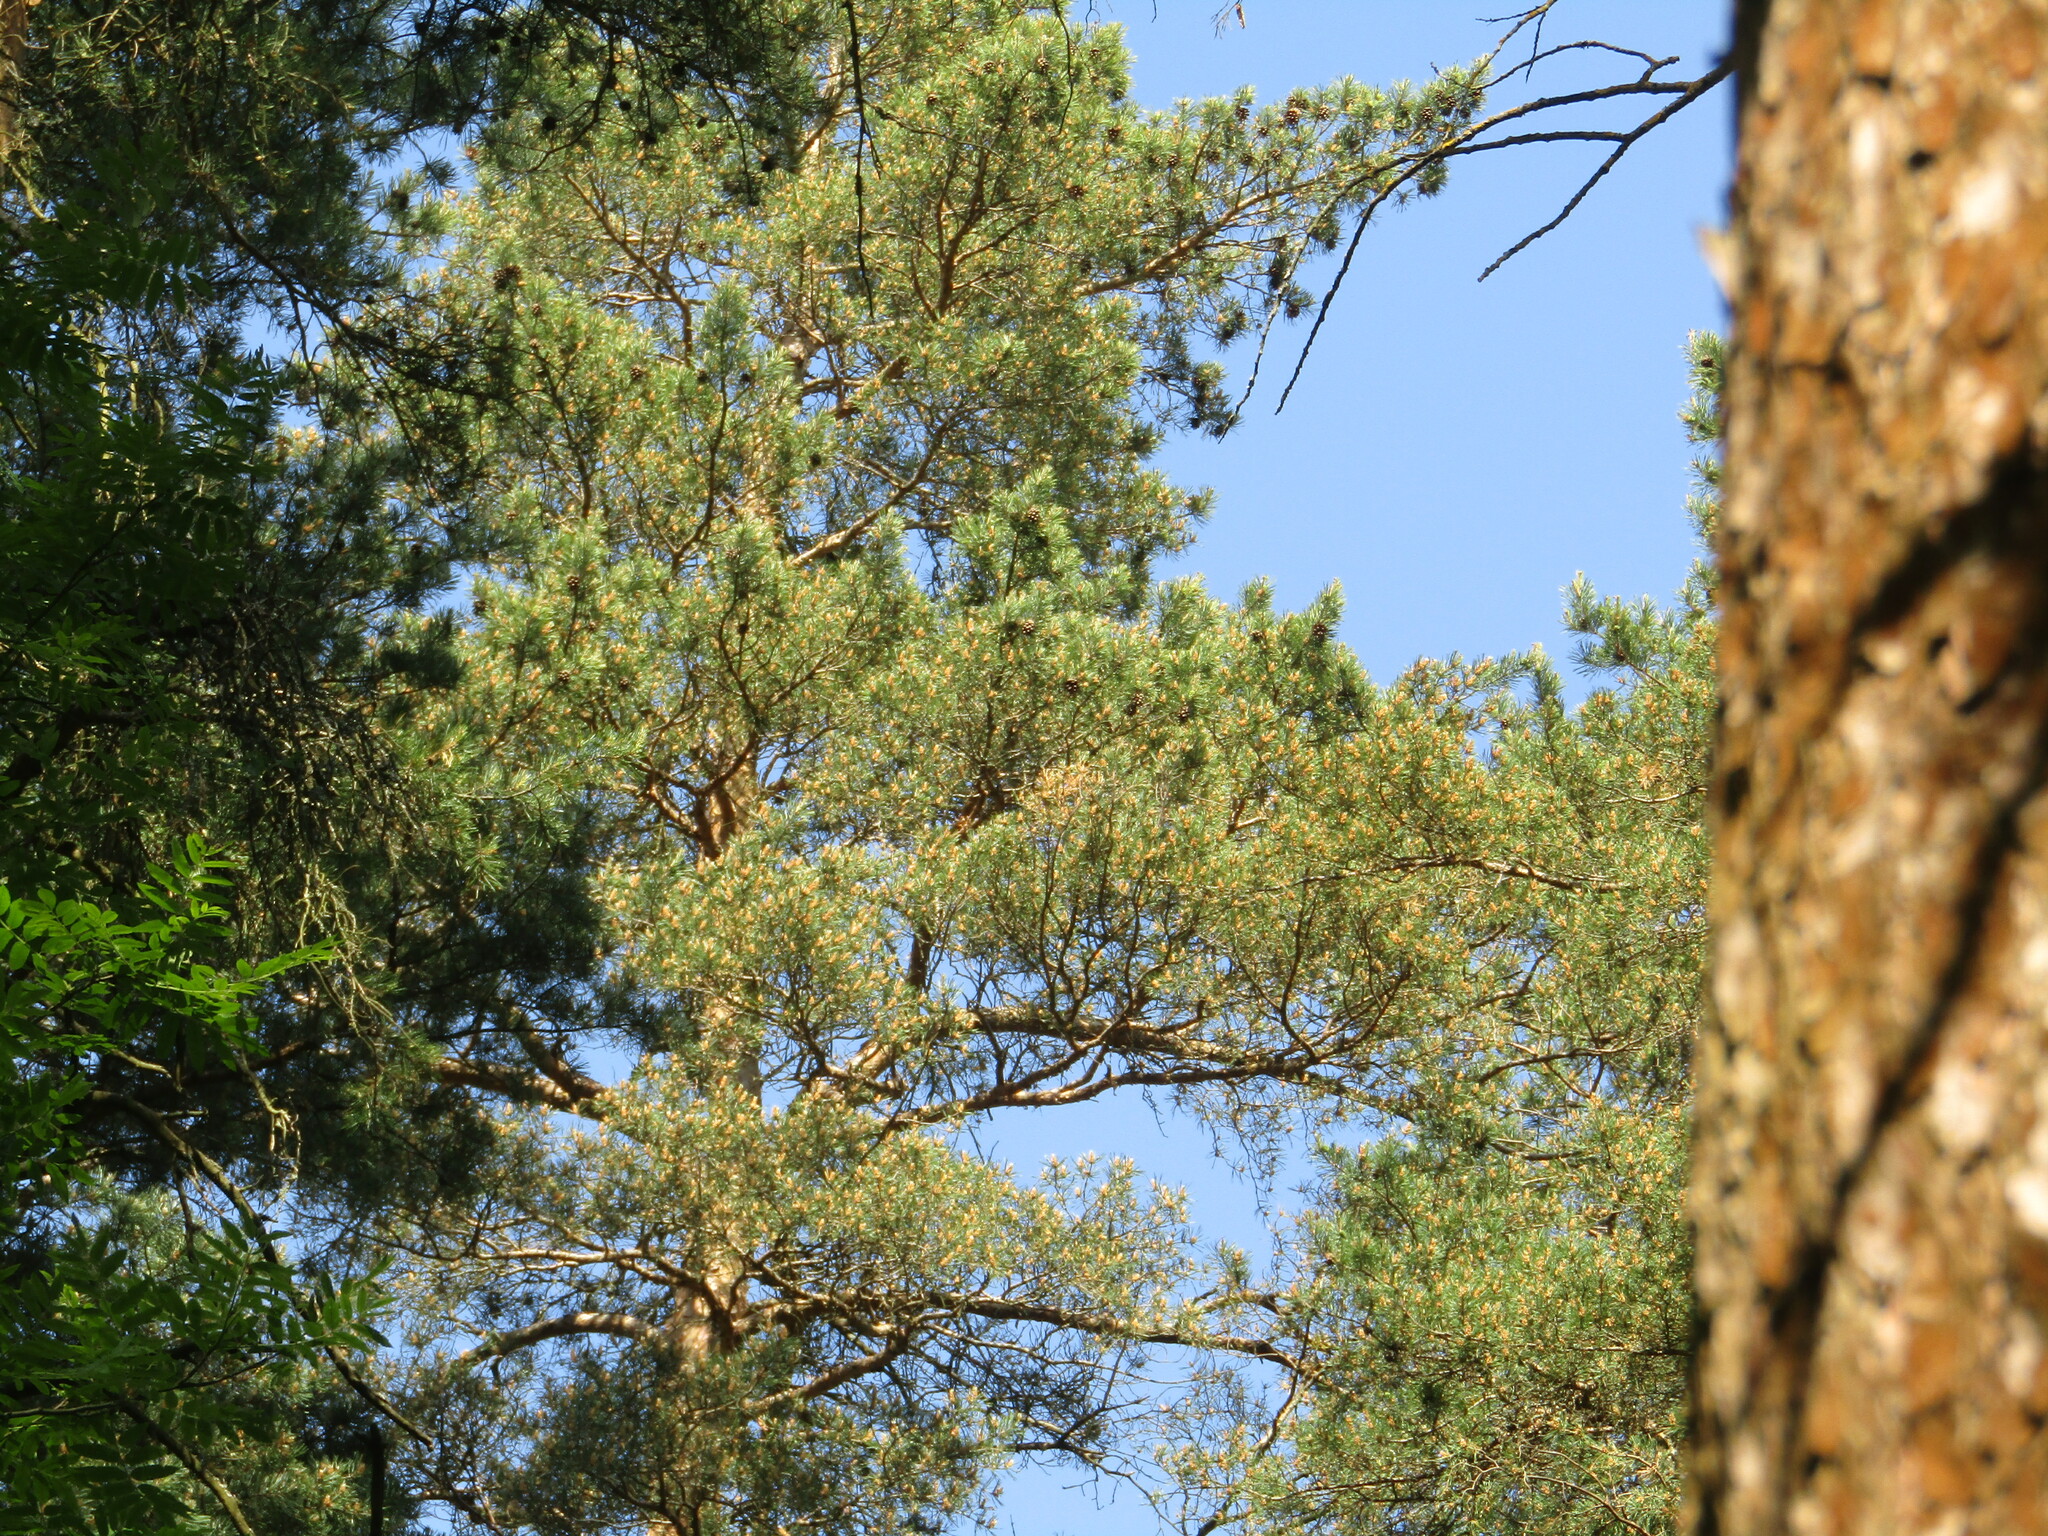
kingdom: Plantae
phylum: Tracheophyta
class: Pinopsida
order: Pinales
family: Pinaceae
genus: Pinus
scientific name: Pinus sylvestris
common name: Scots pine
